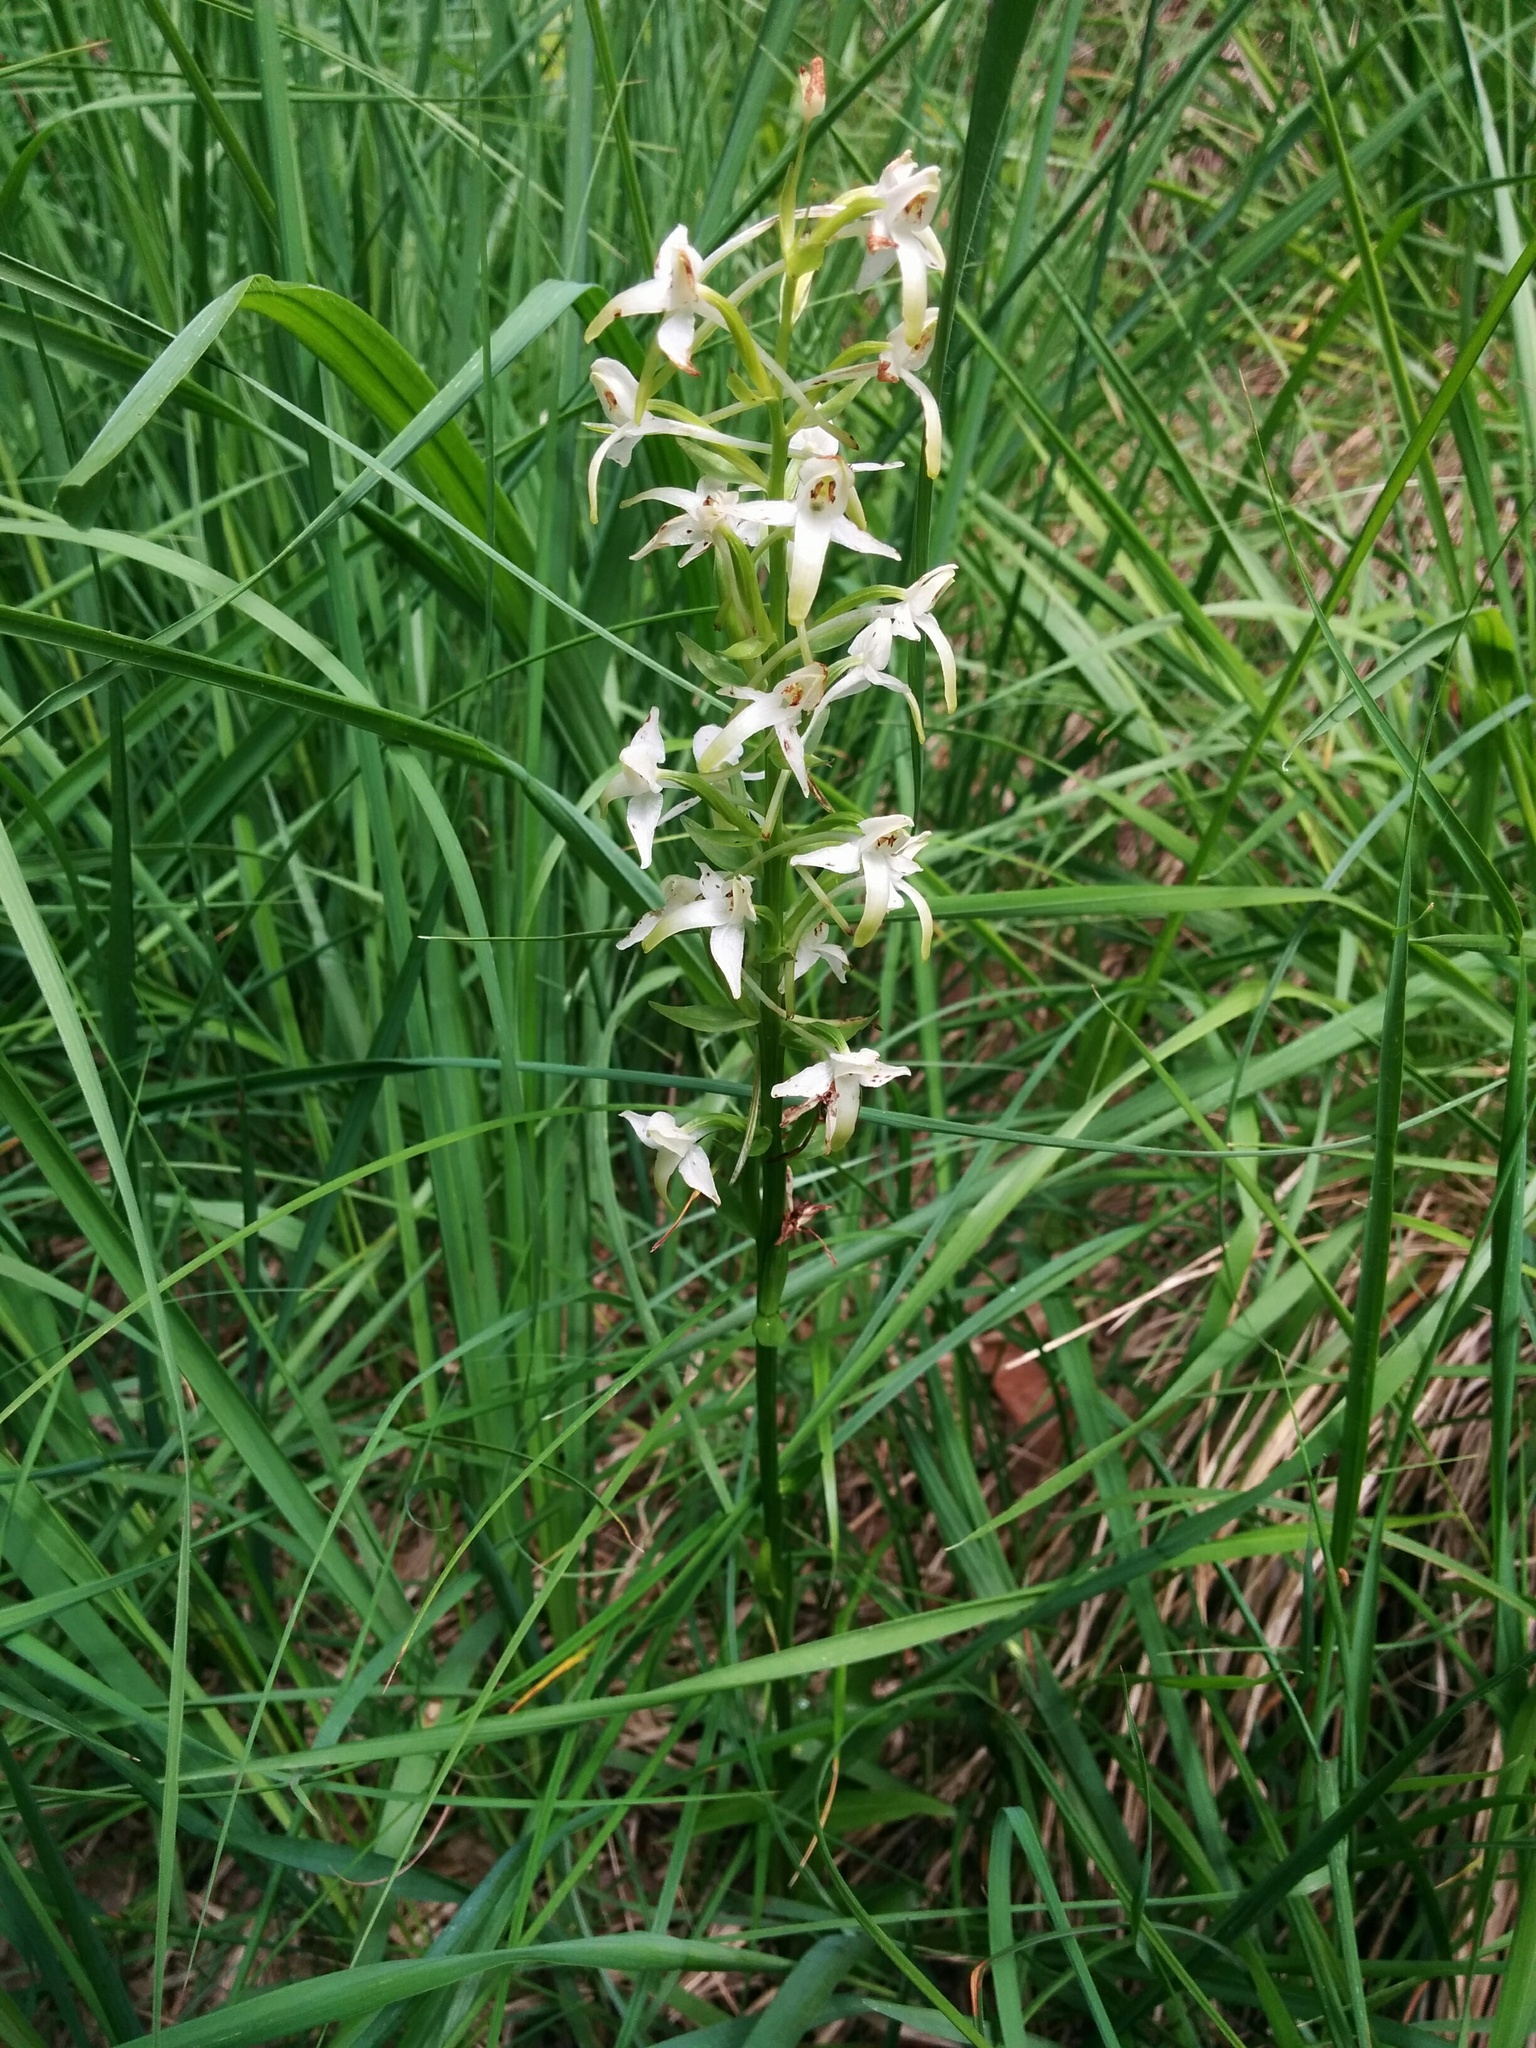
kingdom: Plantae
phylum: Tracheophyta
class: Liliopsida
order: Asparagales
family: Orchidaceae
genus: Platanthera
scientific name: Platanthera chlorantha
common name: Greater butterfly-orchid
